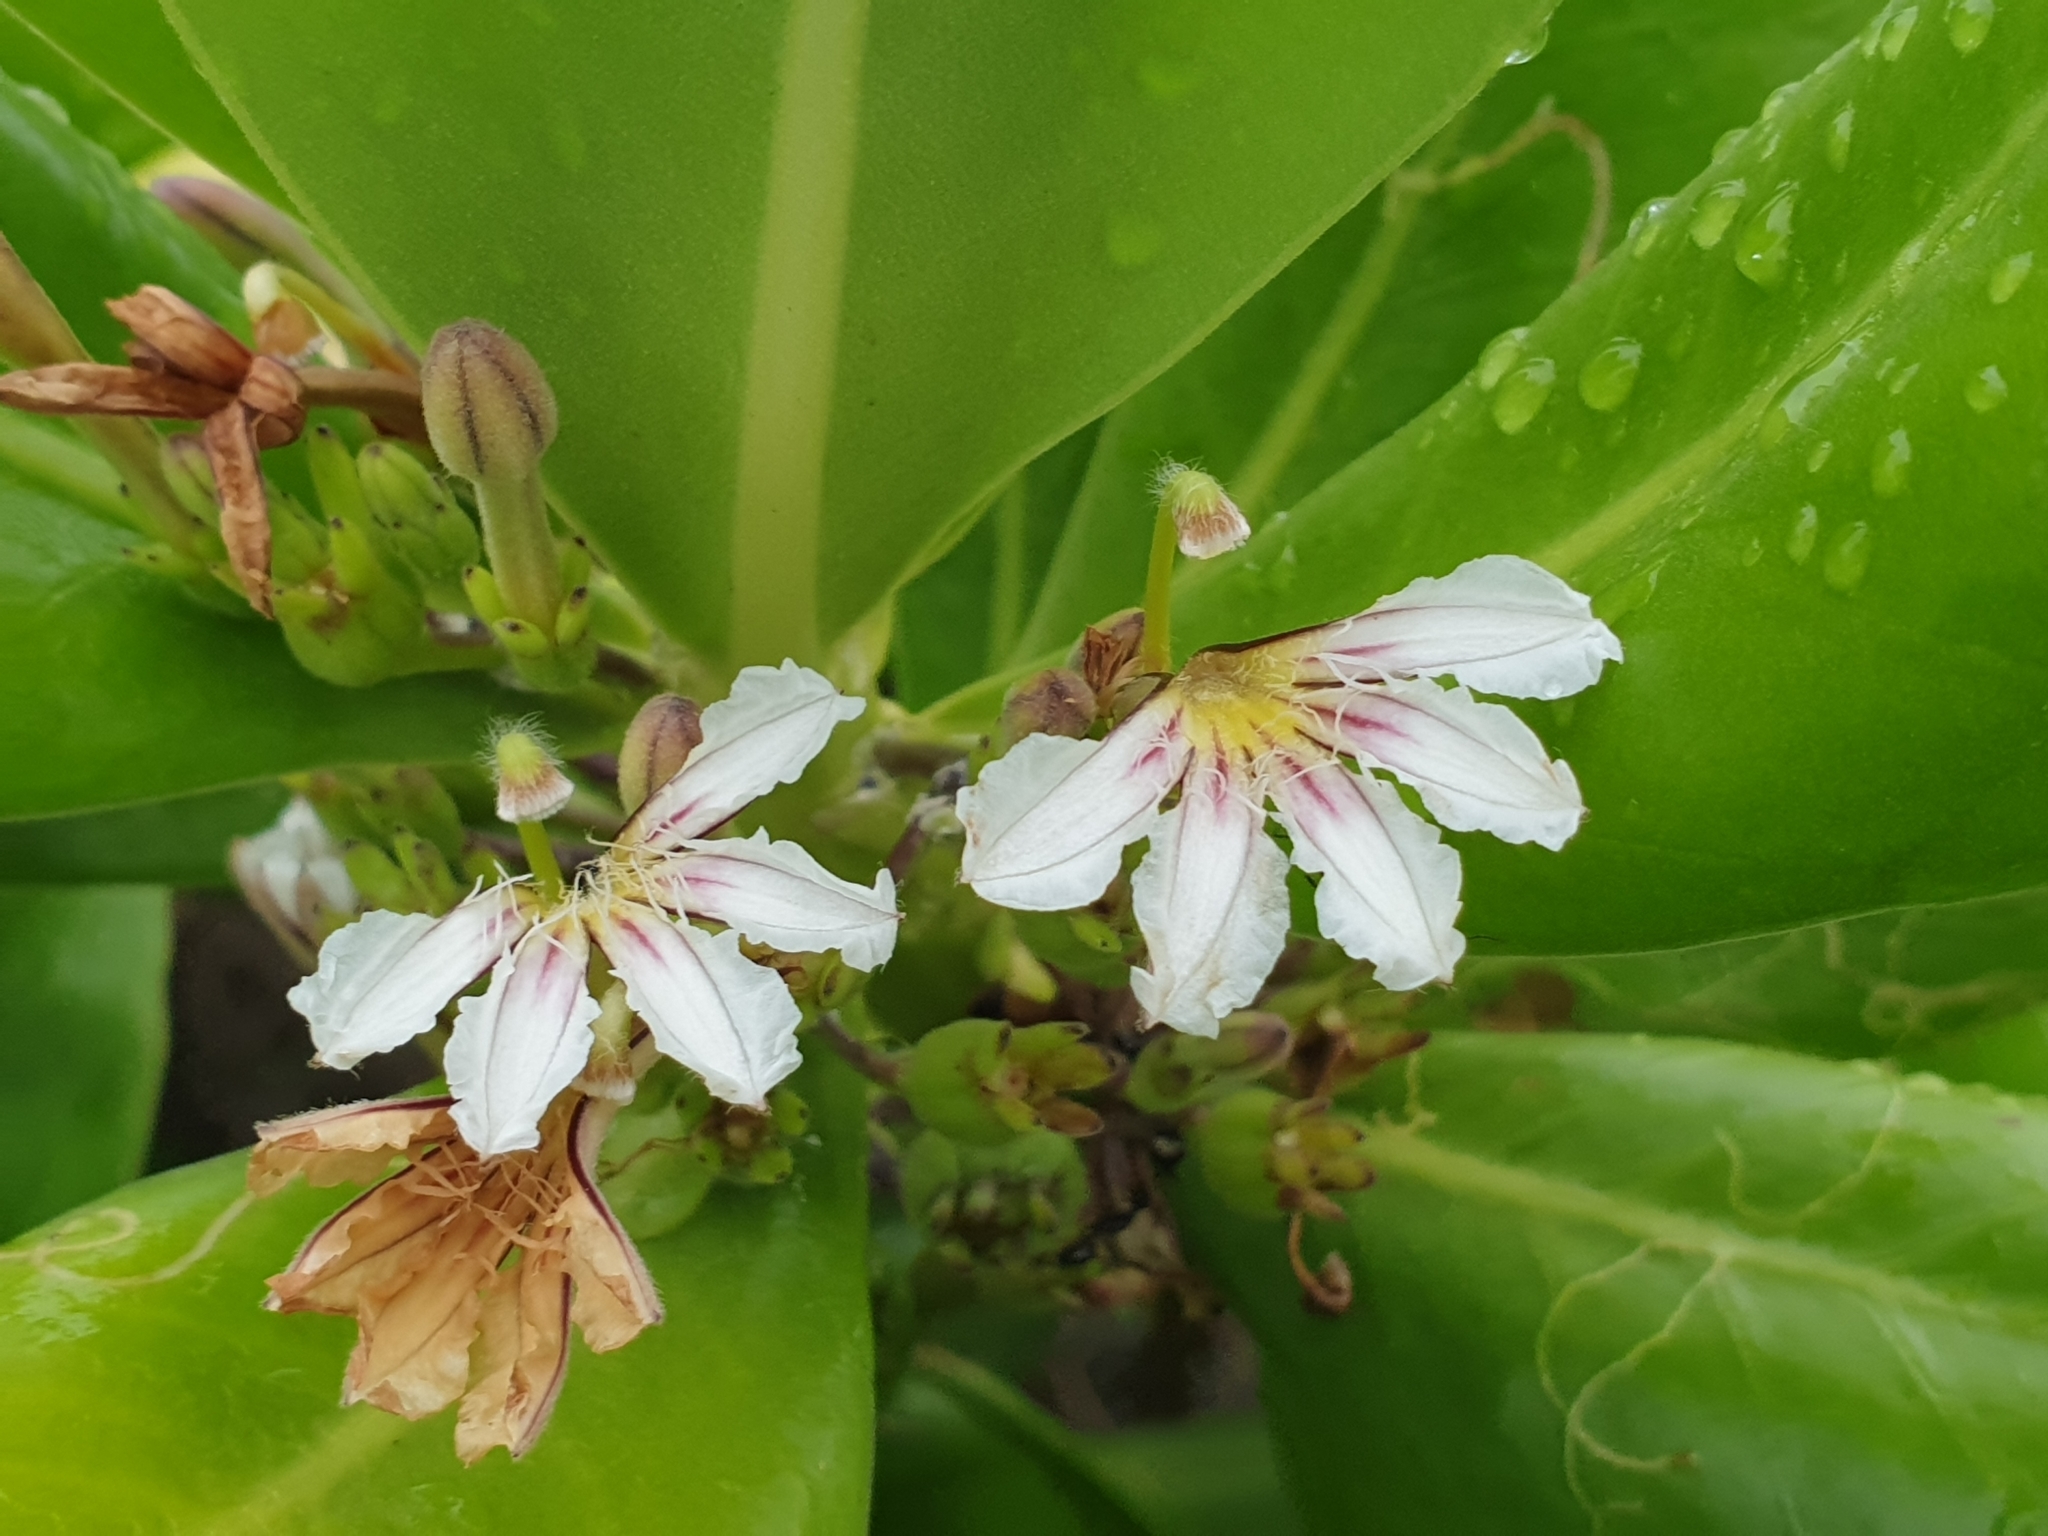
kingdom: Plantae
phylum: Tracheophyta
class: Magnoliopsida
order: Asterales
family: Goodeniaceae
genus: Scaevola
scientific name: Scaevola taccada
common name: Sea lettucetree
